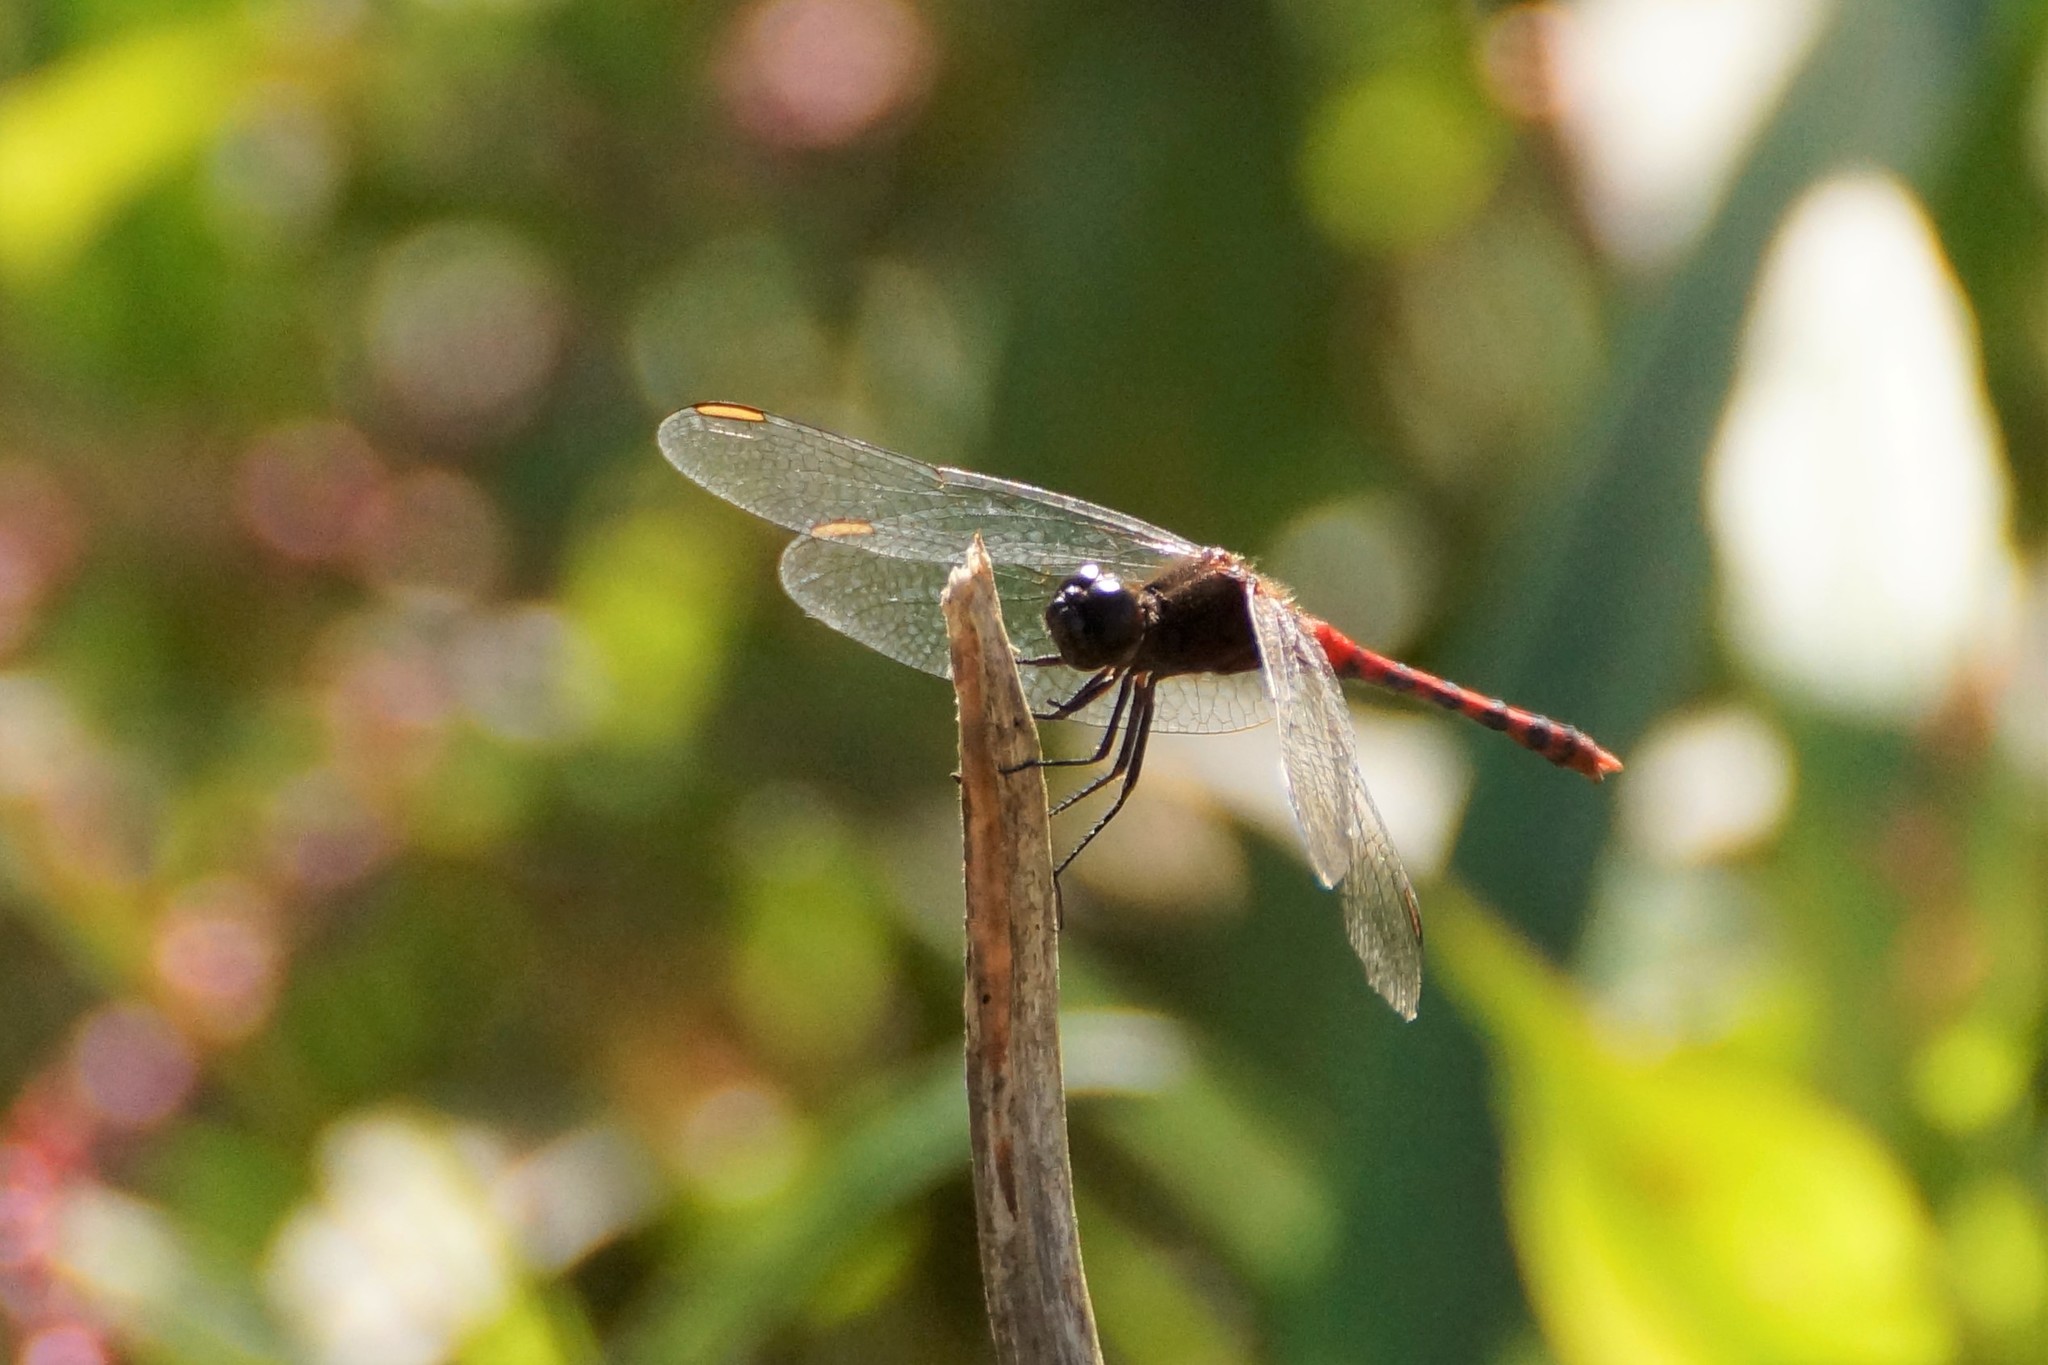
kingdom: Animalia
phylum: Arthropoda
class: Insecta
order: Odonata
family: Libellulidae
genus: Diplacodes
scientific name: Diplacodes melanopsis
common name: Black-faced percher
